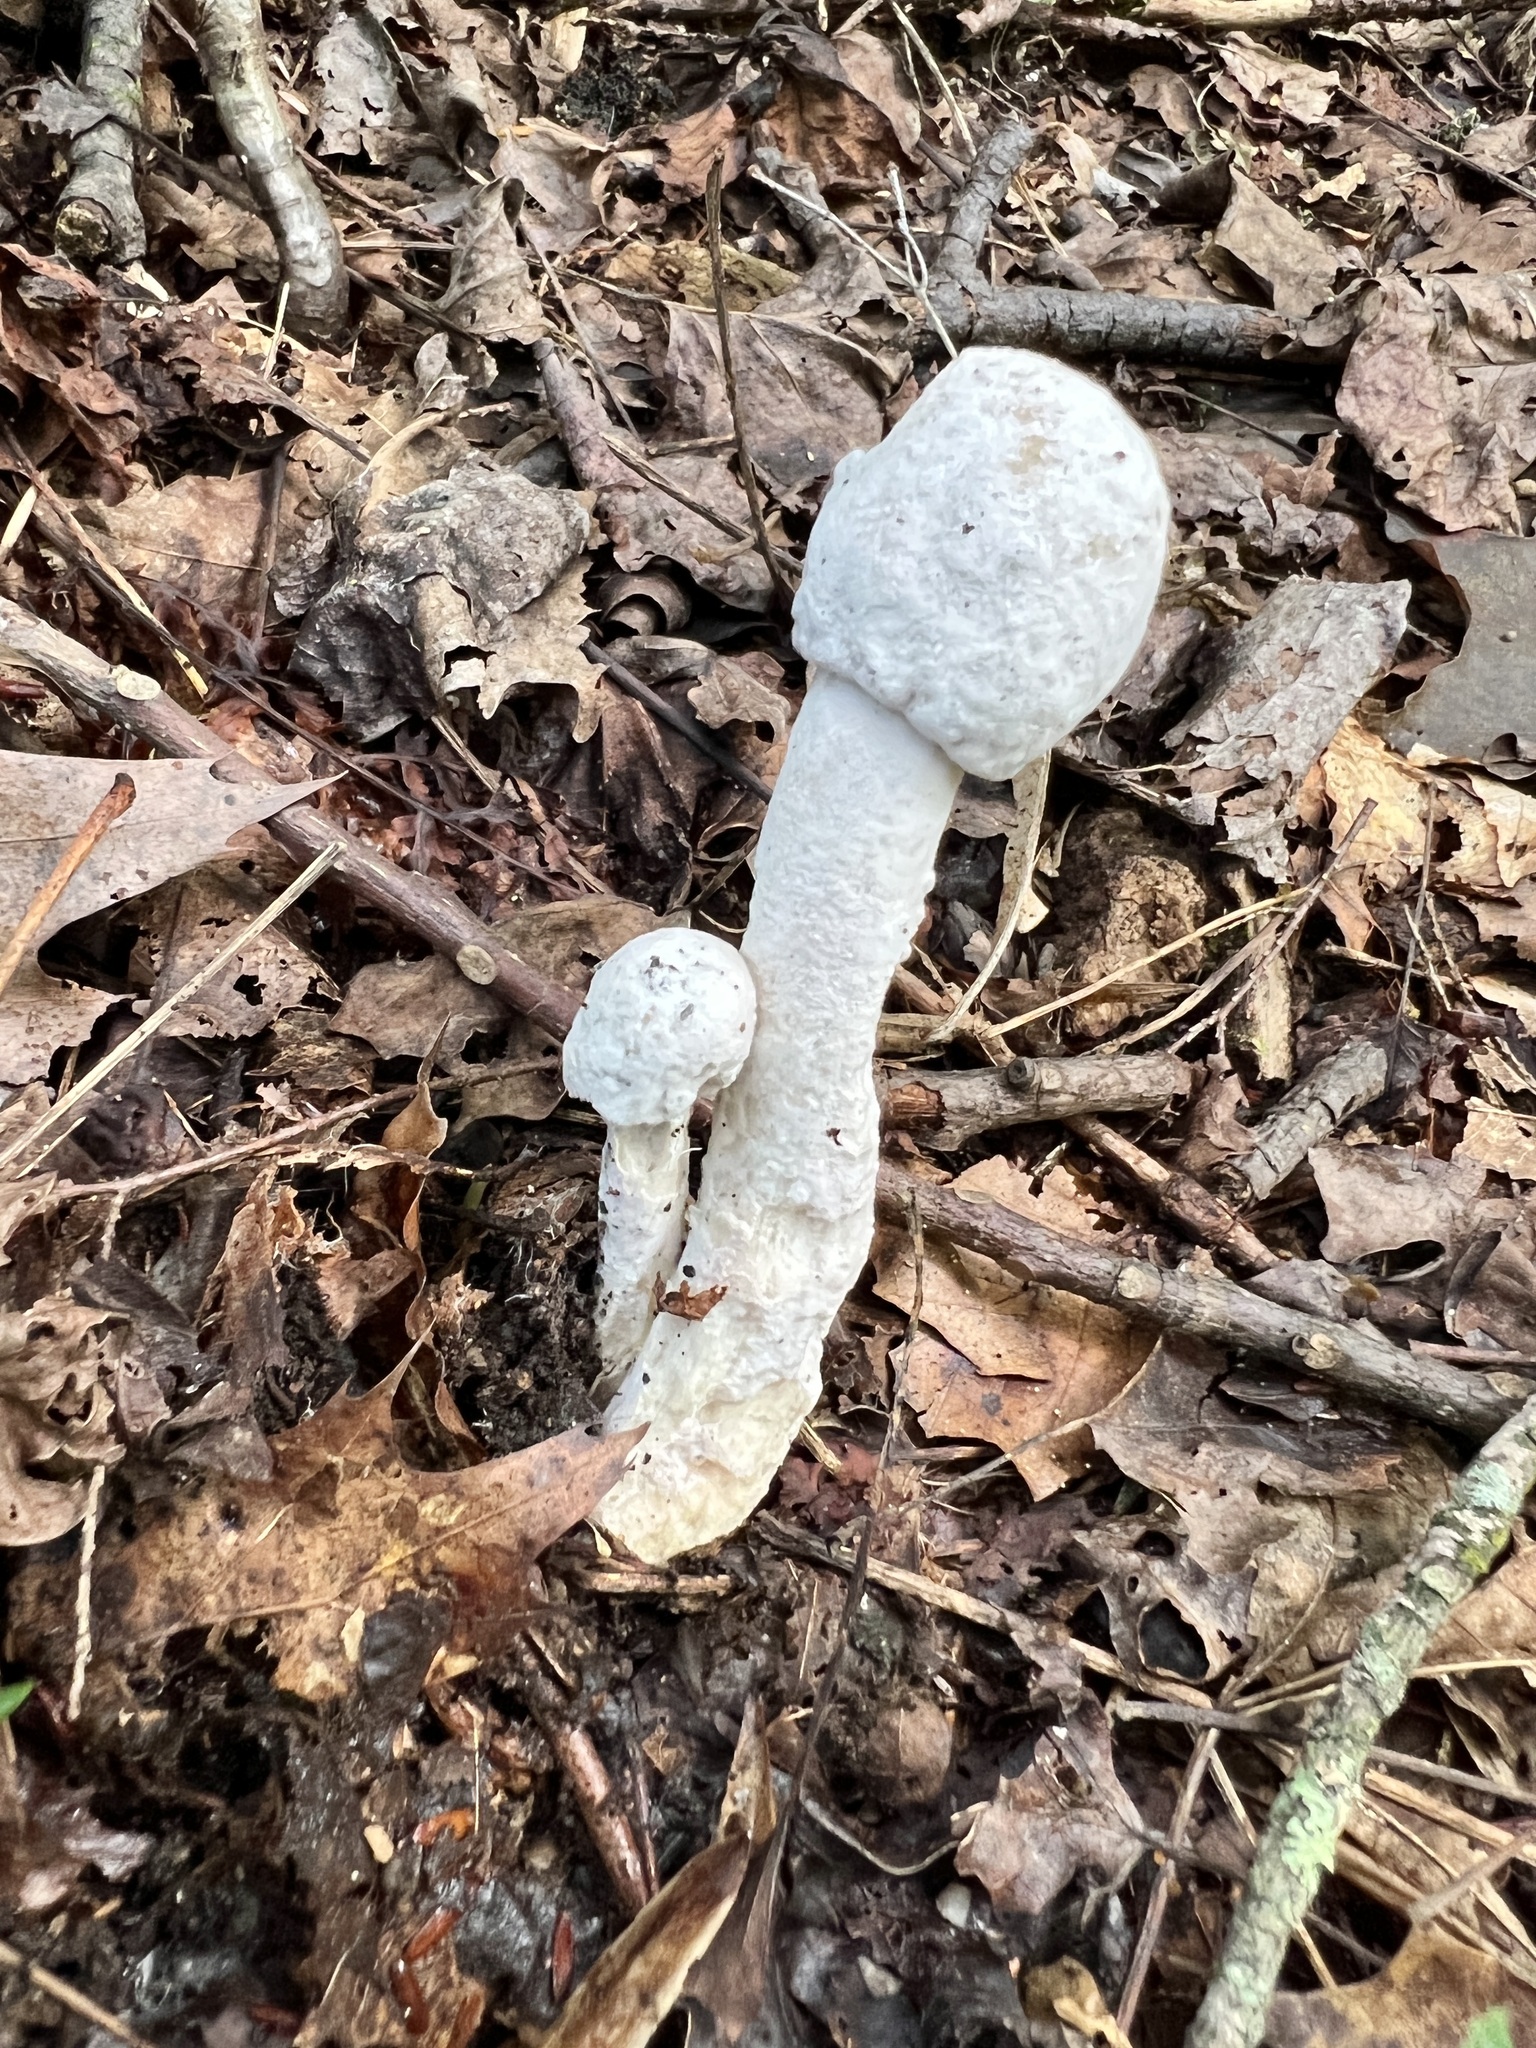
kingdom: Fungi
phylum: Ascomycota
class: Sordariomycetes
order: Hypocreales
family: Hypocreaceae
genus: Hypomyces
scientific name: Hypomyces hyalinus
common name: Amanita mold
